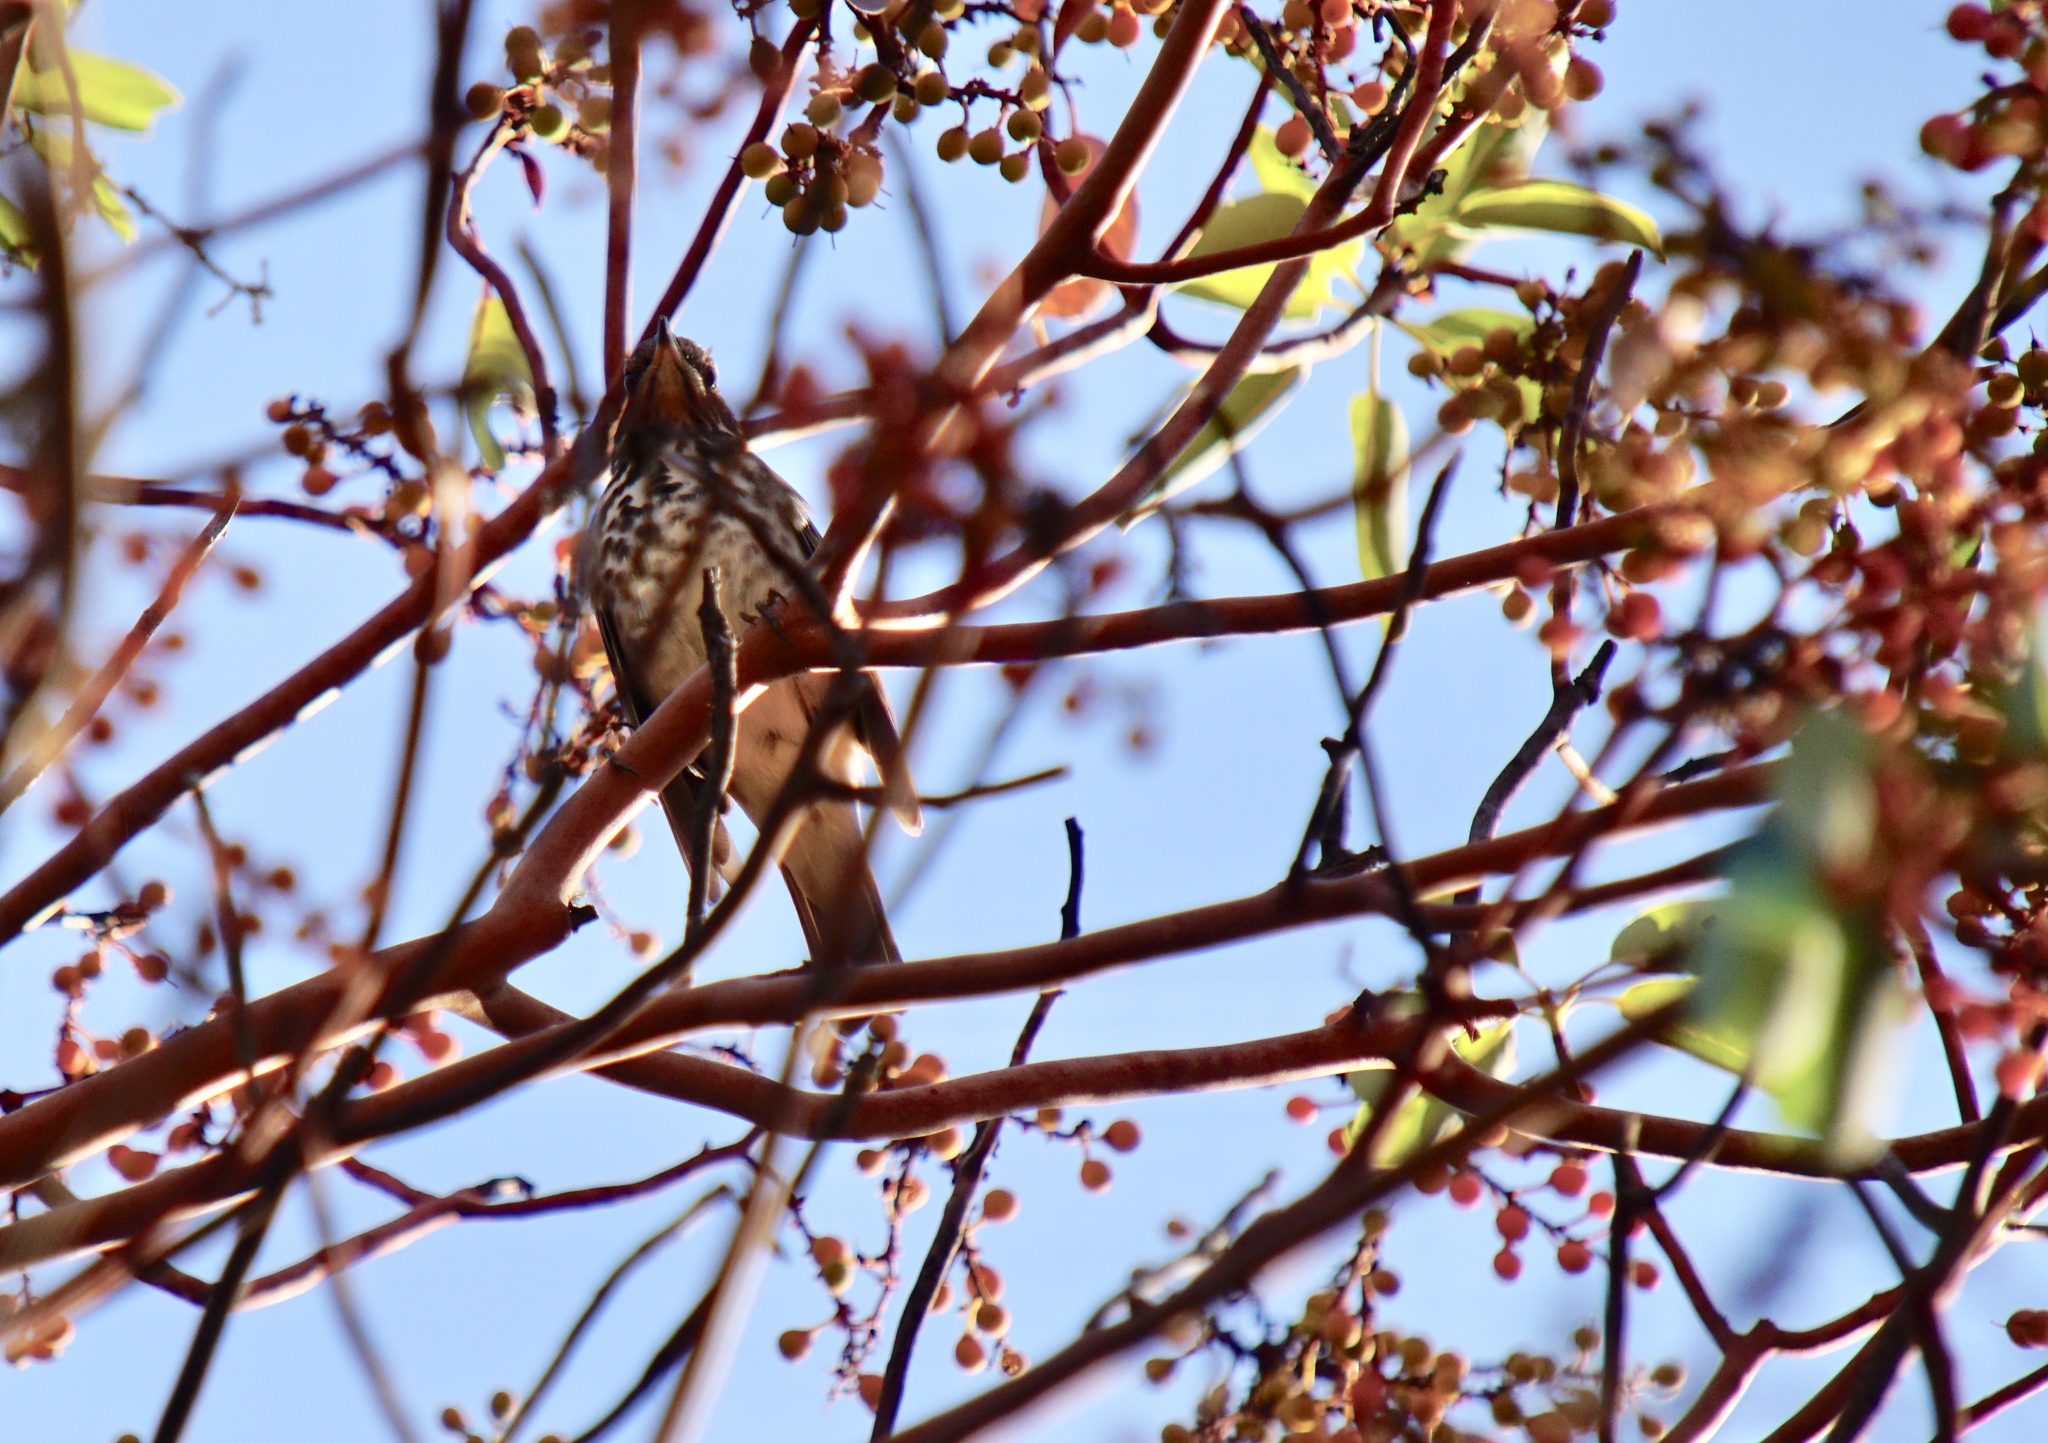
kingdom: Animalia
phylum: Chordata
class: Aves
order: Passeriformes
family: Turdidae
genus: Catharus
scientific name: Catharus guttatus
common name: Hermit thrush
